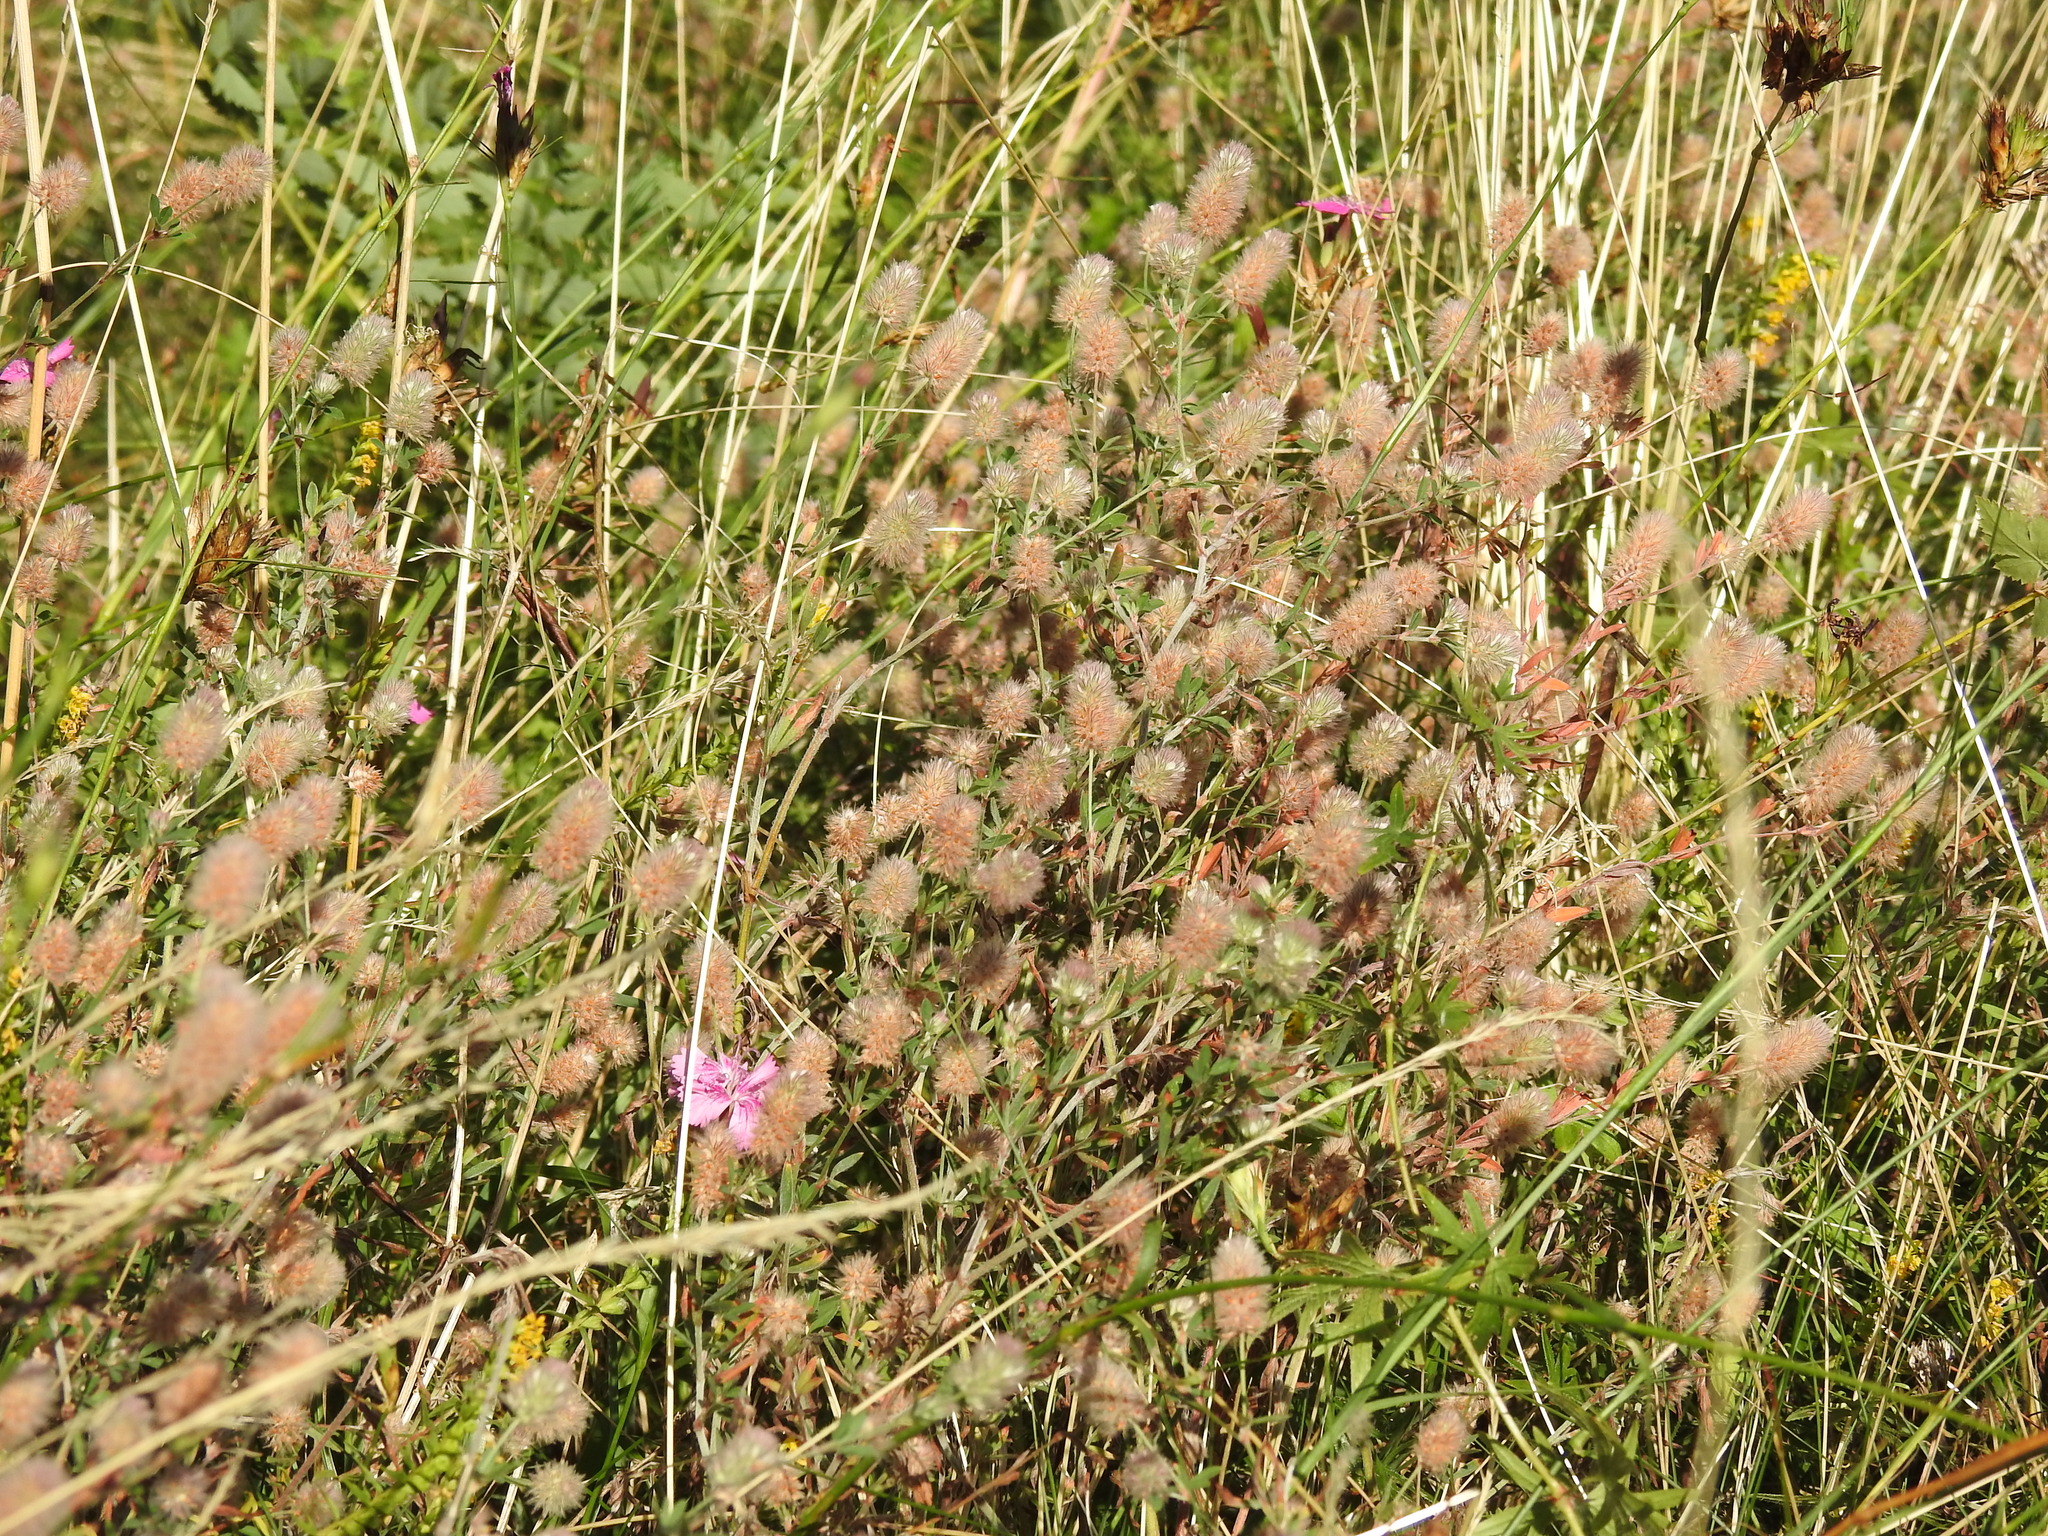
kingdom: Plantae
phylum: Tracheophyta
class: Magnoliopsida
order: Fabales
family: Fabaceae
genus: Trifolium
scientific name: Trifolium arvense
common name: Hare's-foot clover
